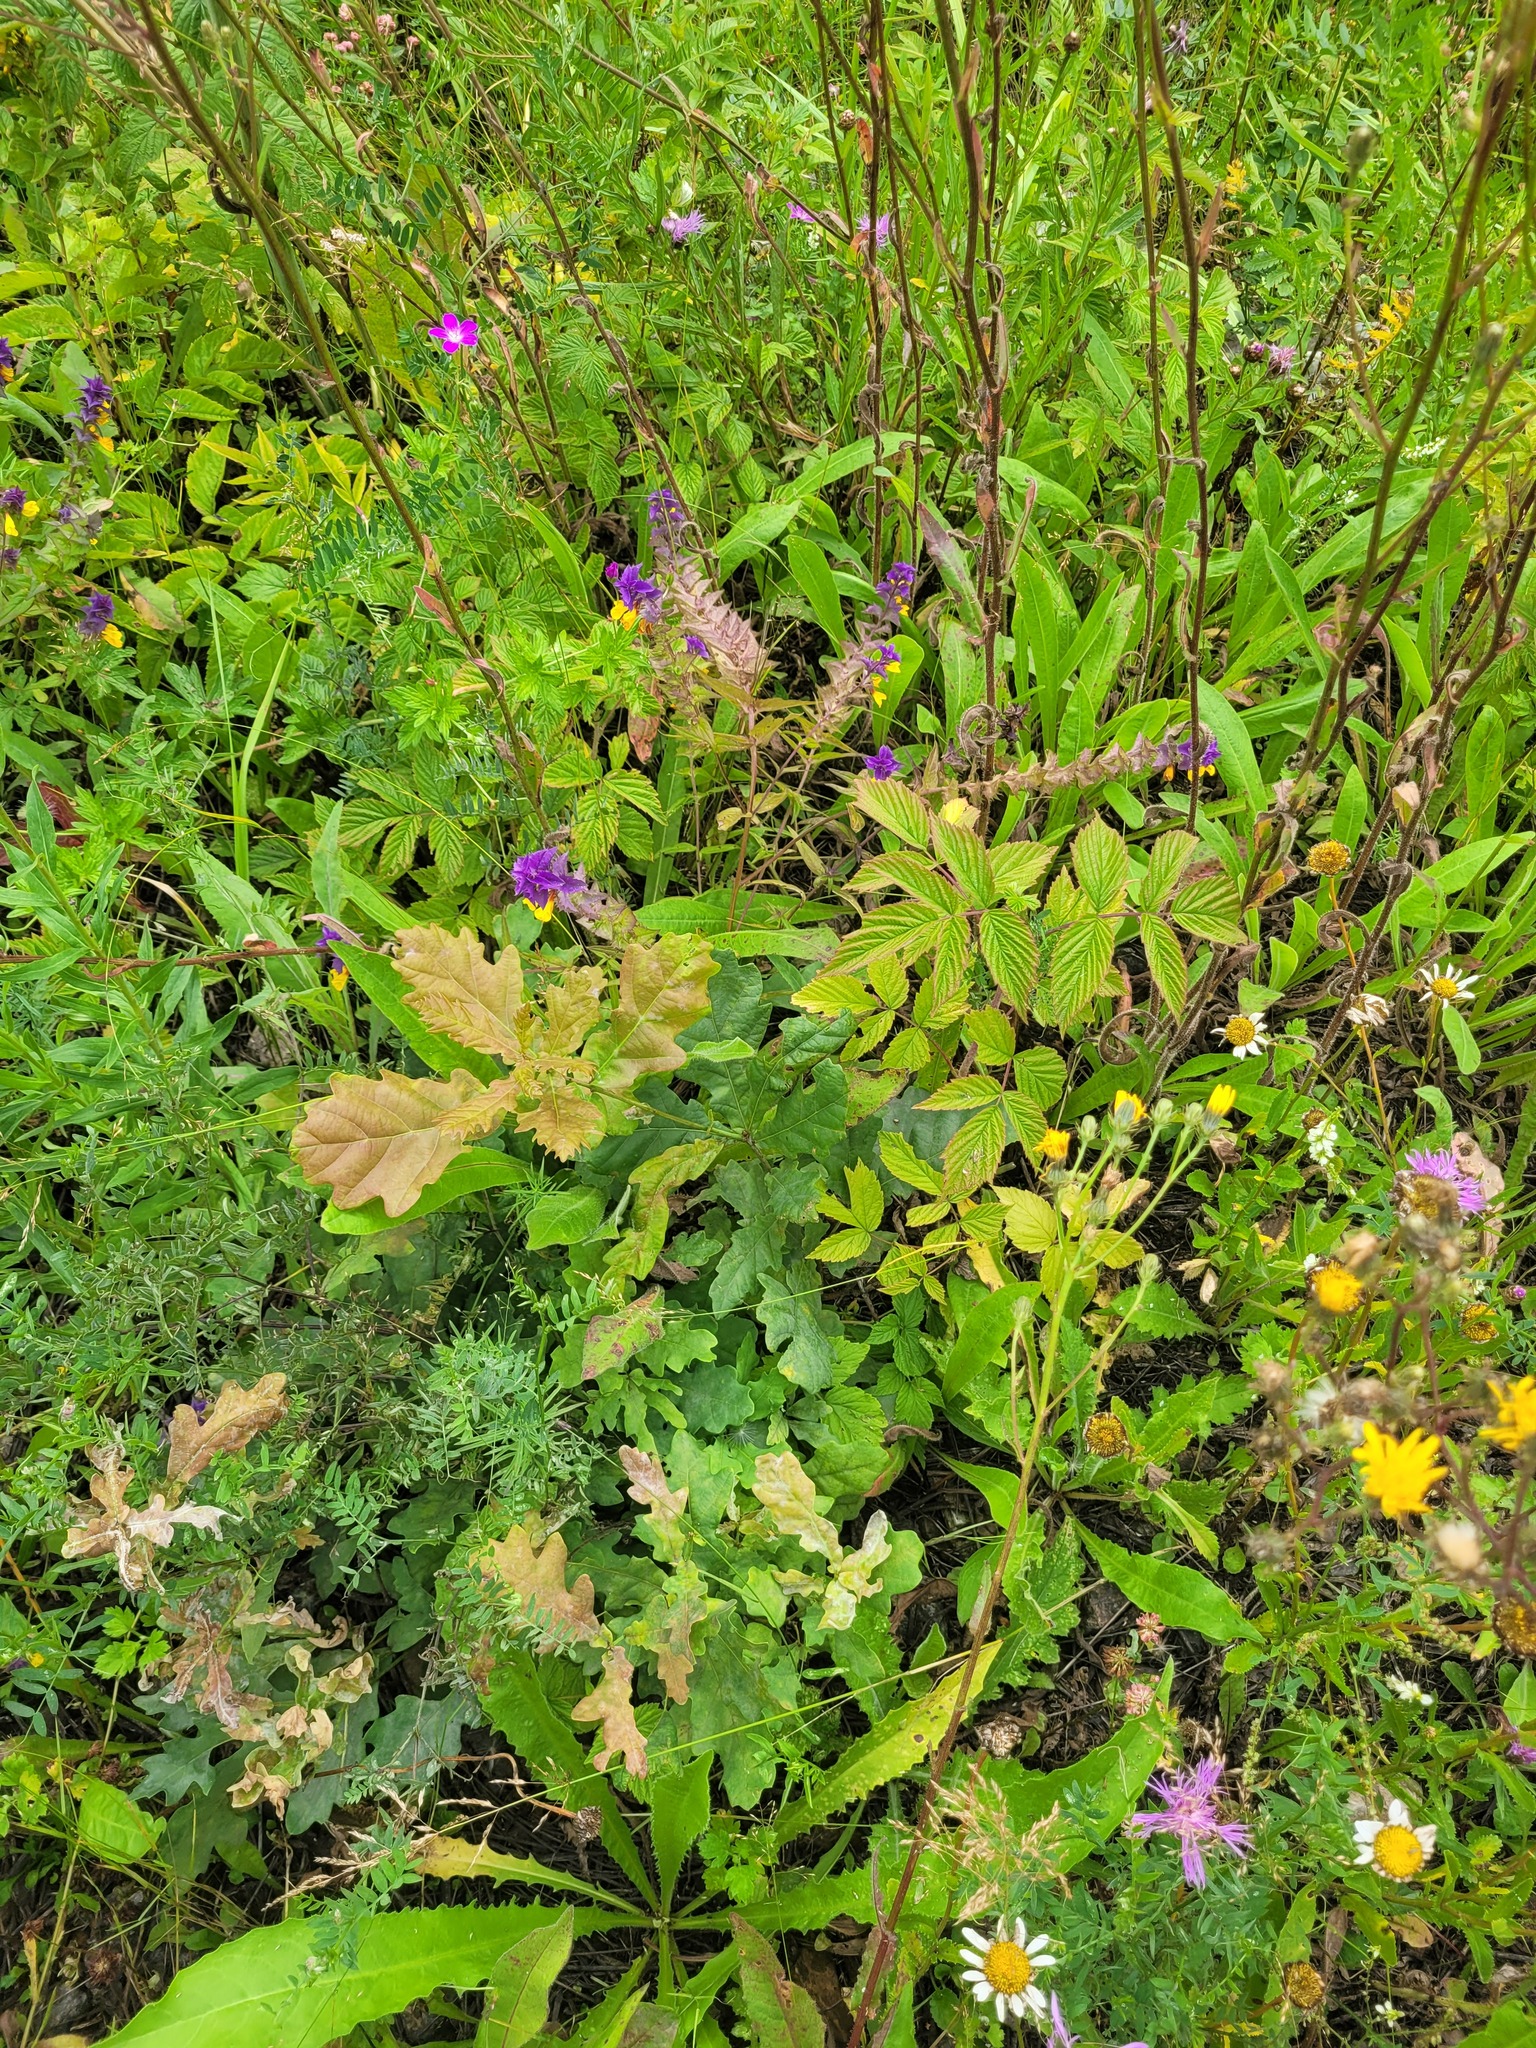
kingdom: Plantae
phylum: Tracheophyta
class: Magnoliopsida
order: Fagales
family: Fagaceae
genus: Quercus
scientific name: Quercus robur
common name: Pedunculate oak
